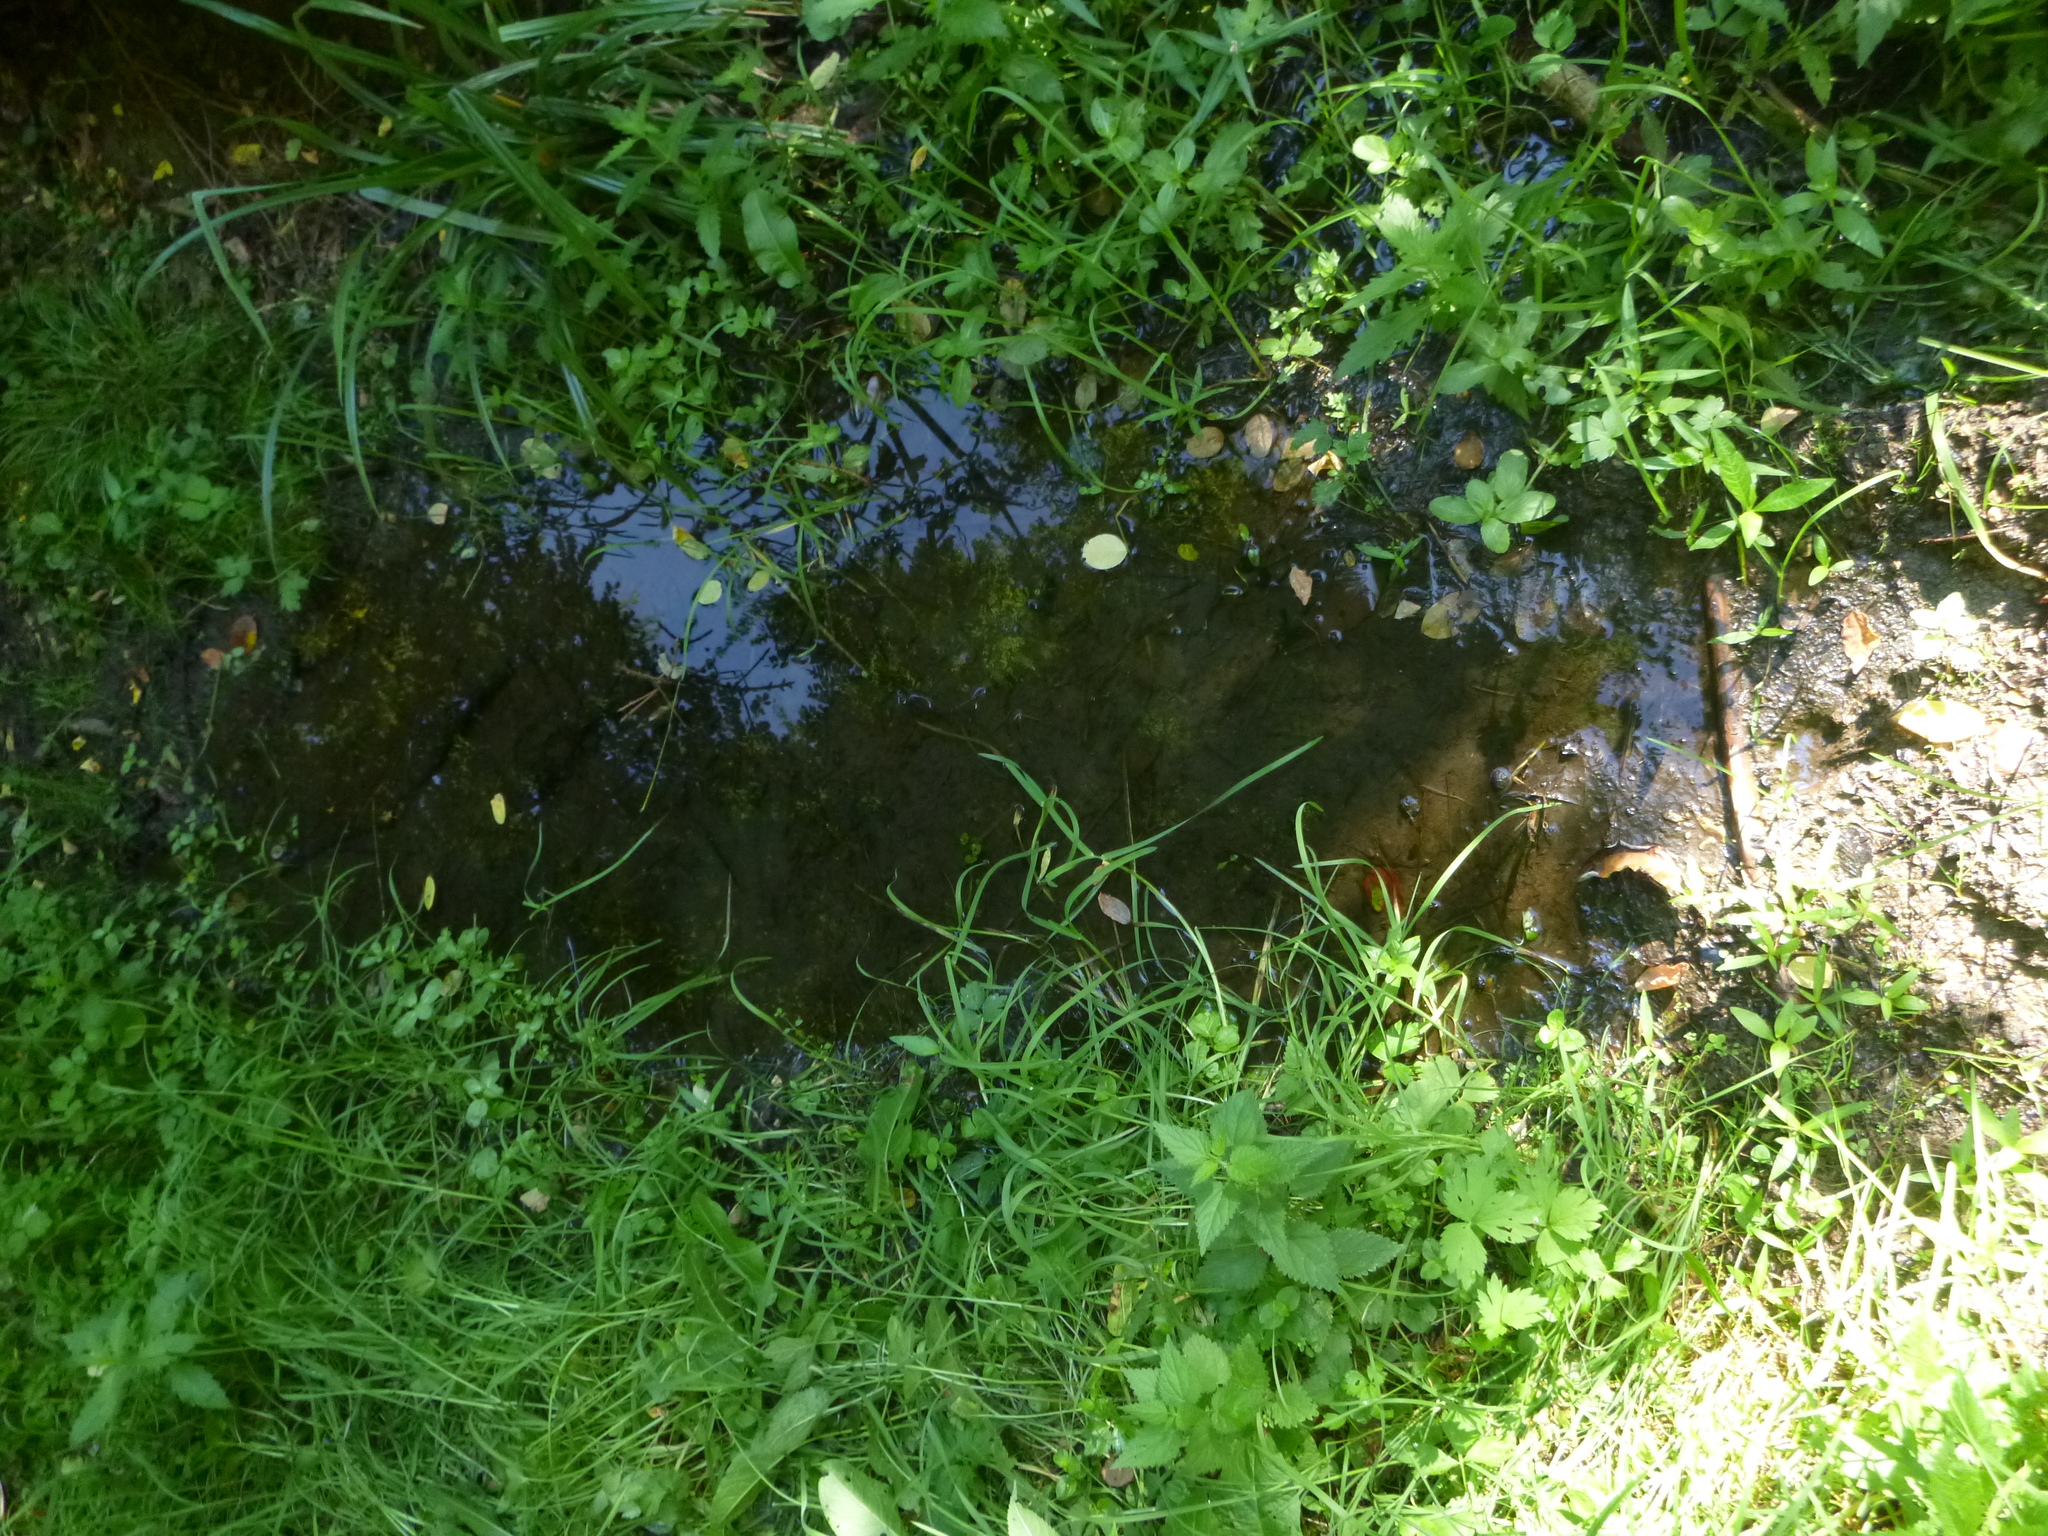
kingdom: Animalia
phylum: Chordata
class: Amphibia
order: Anura
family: Bombinatoridae
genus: Bombina
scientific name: Bombina variegata
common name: Yellow-bellied toad
